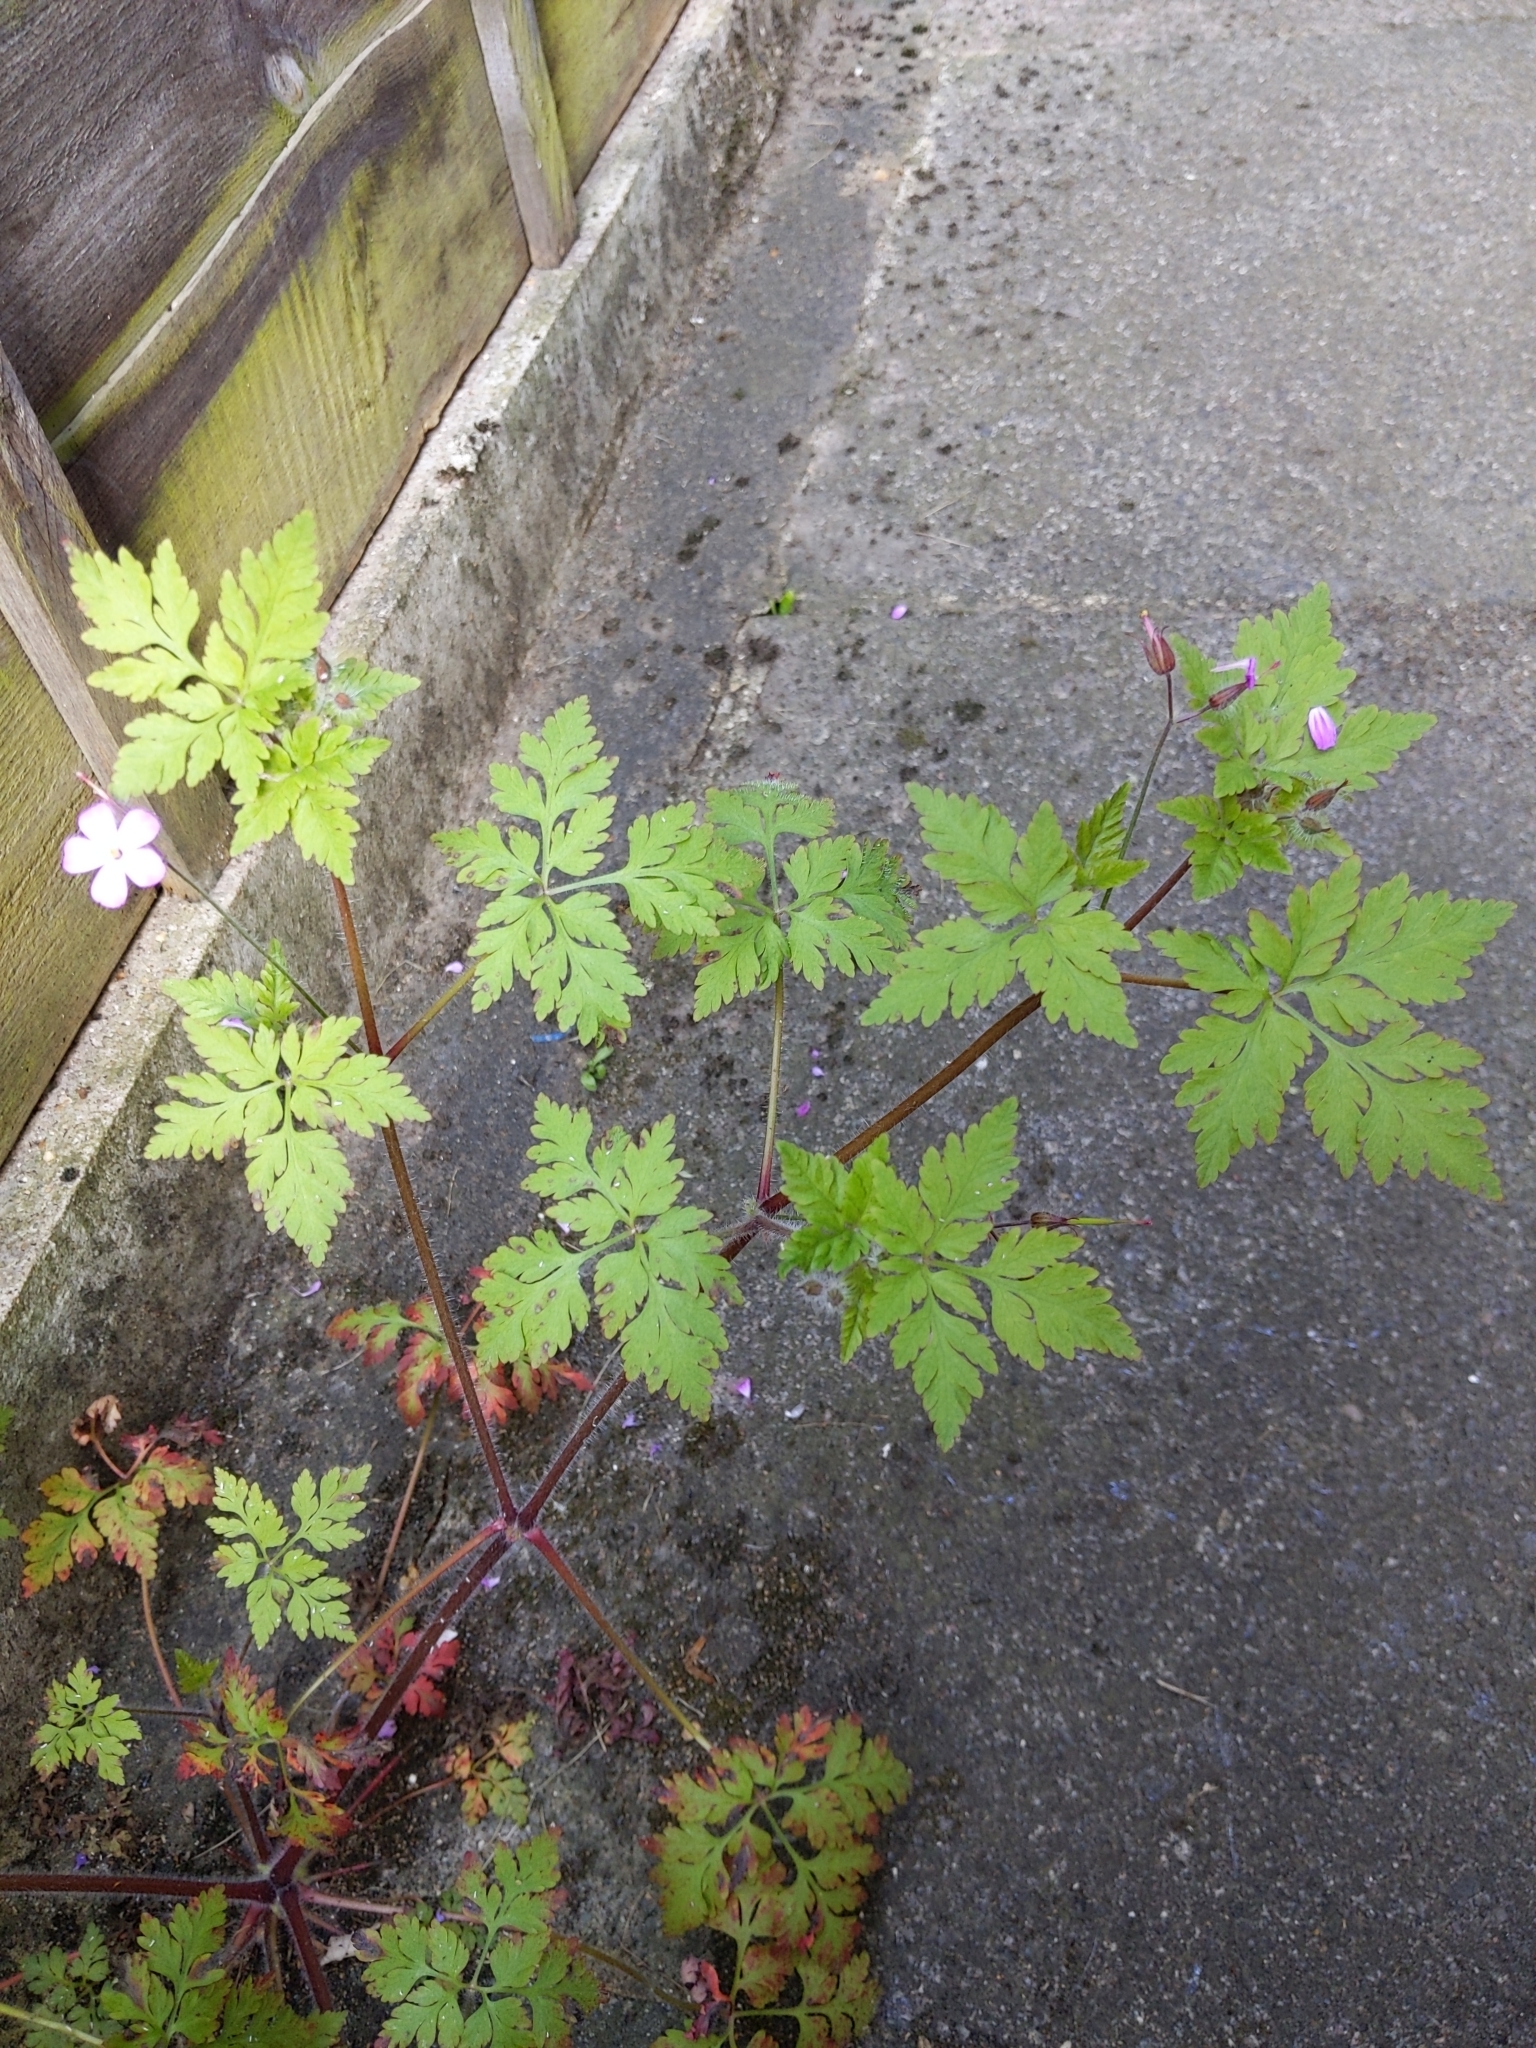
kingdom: Plantae
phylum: Tracheophyta
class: Magnoliopsida
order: Geraniales
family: Geraniaceae
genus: Geranium
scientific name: Geranium robertianum
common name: Herb-robert
